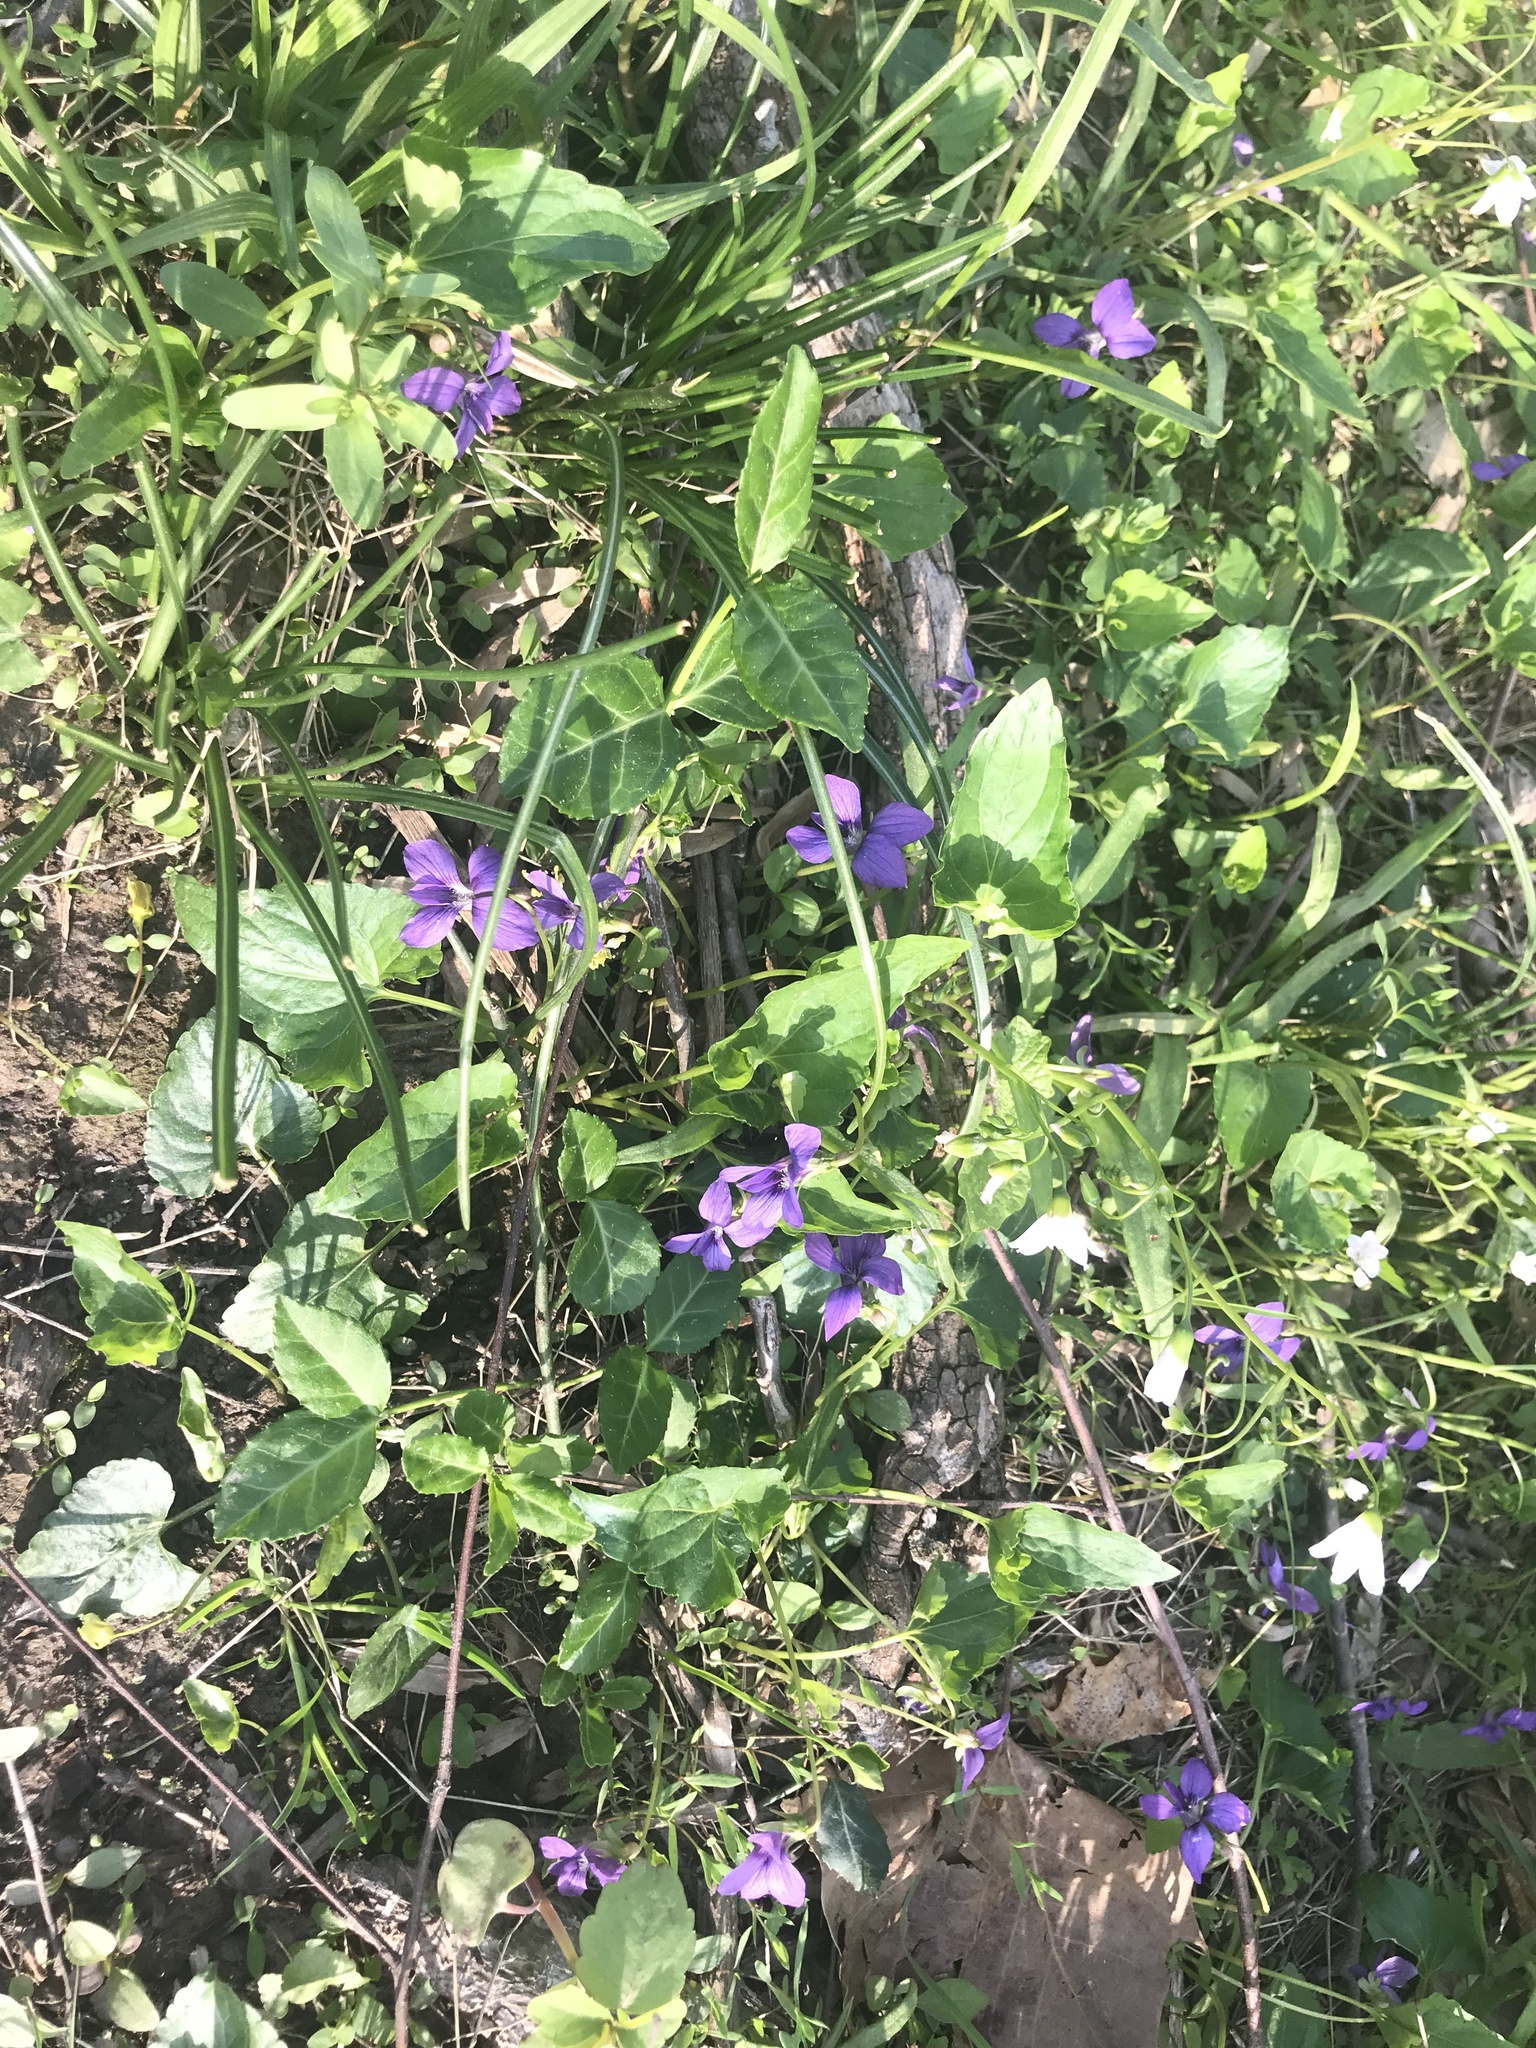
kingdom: Plantae
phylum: Tracheophyta
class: Magnoliopsida
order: Malpighiales
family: Violaceae
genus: Viola
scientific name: Viola sororia
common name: Dooryard violet
